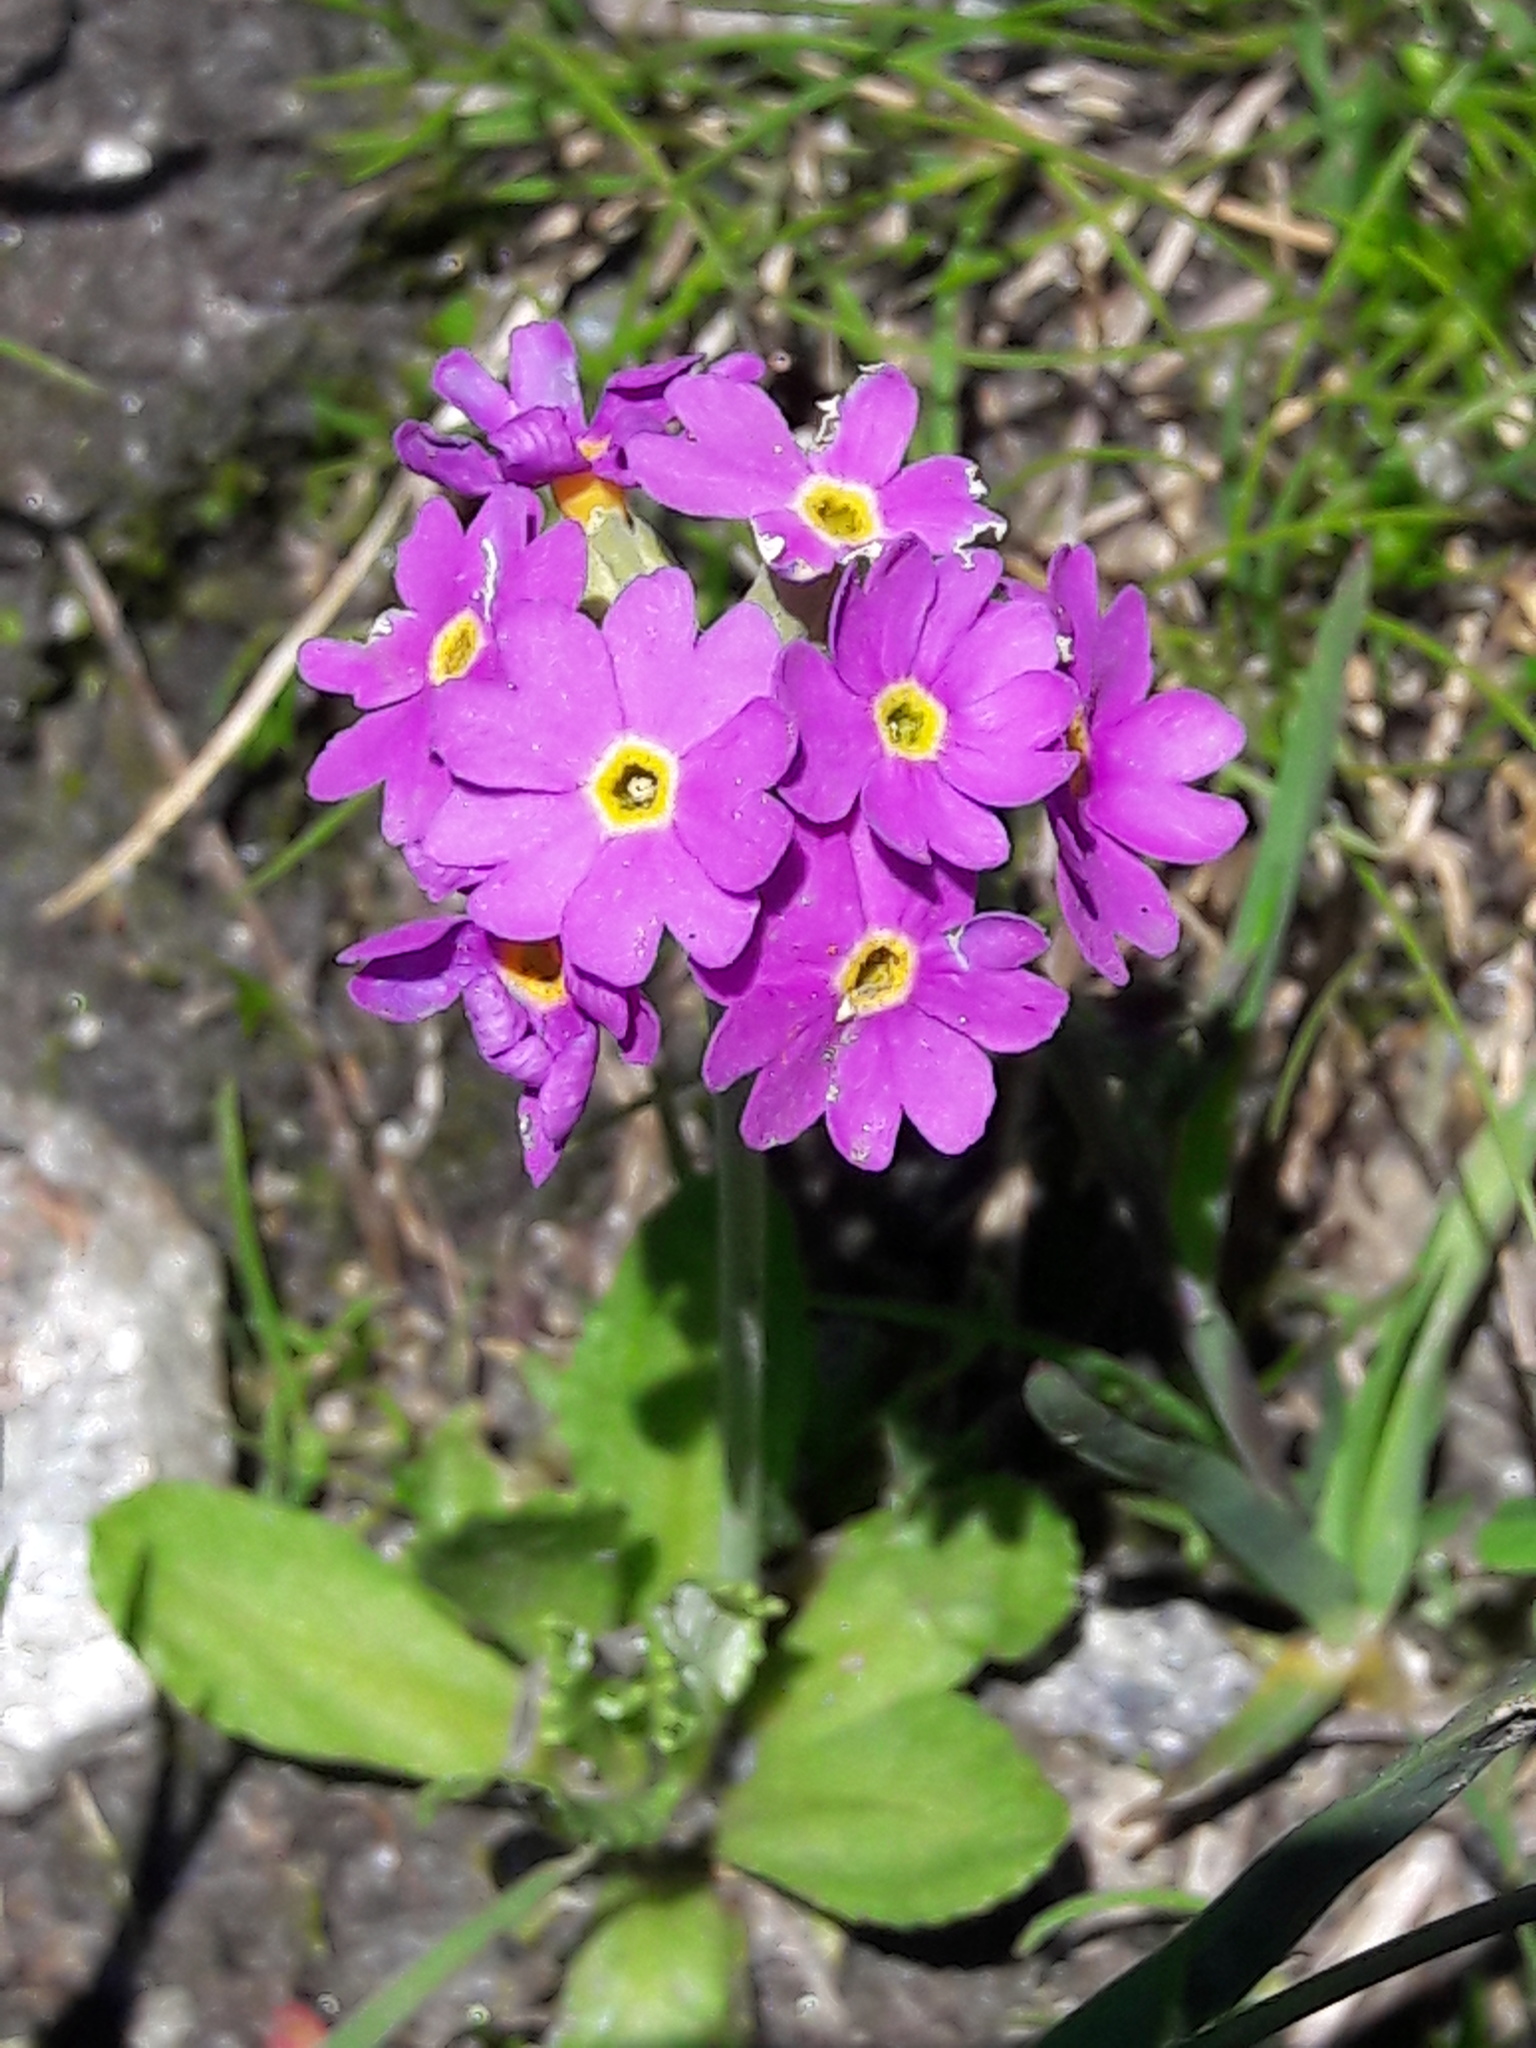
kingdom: Plantae
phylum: Tracheophyta
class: Magnoliopsida
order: Ericales
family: Primulaceae
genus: Primula
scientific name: Primula farinosa
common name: Bird's-eye primrose
